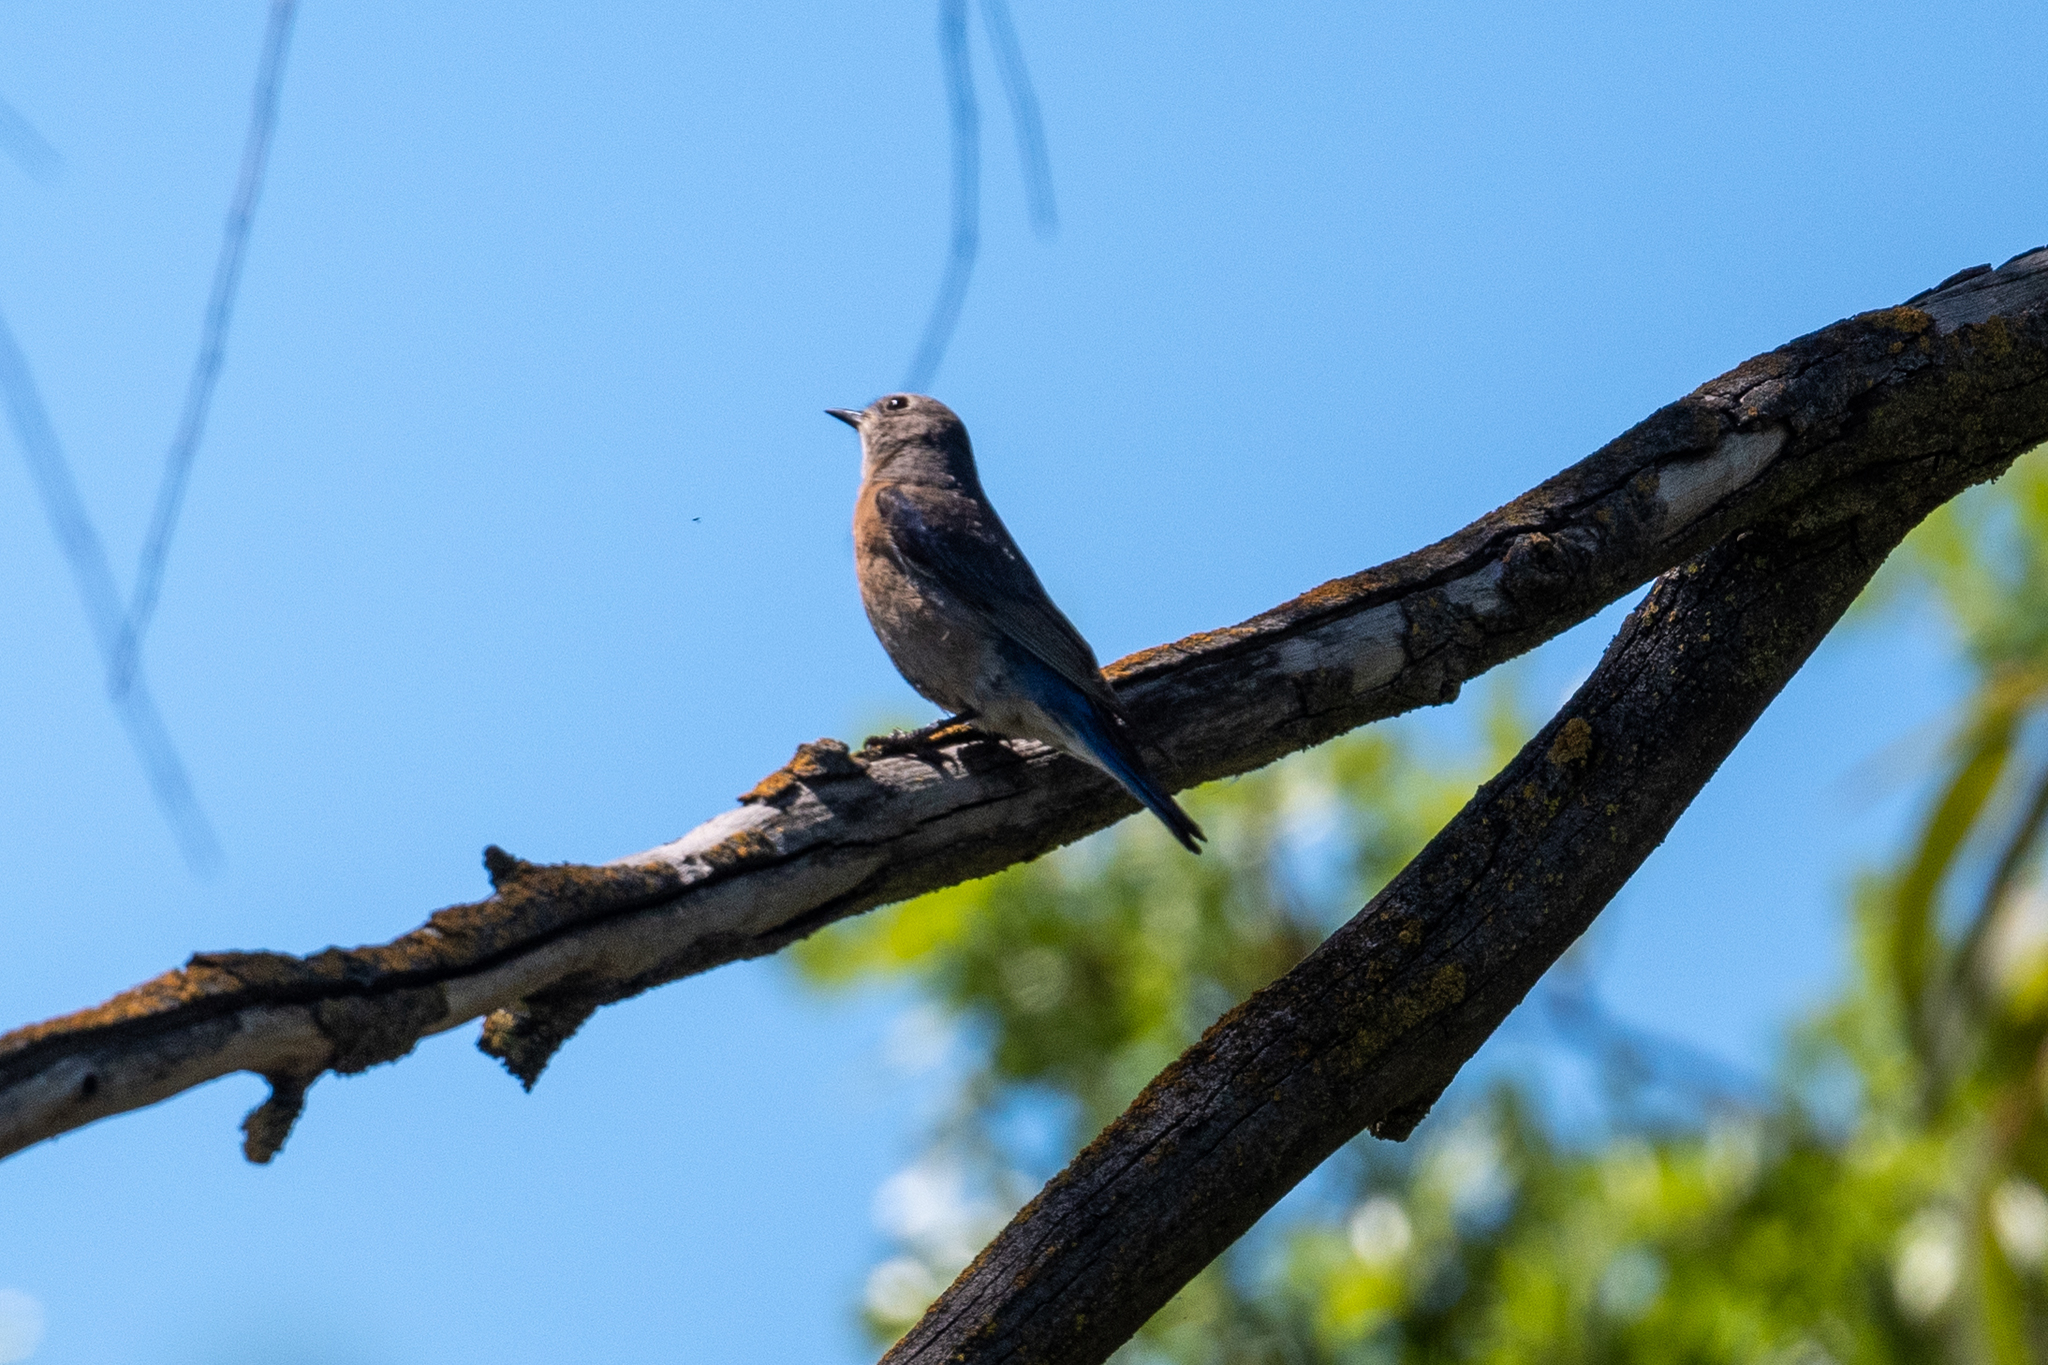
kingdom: Animalia
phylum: Chordata
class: Aves
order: Passeriformes
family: Turdidae
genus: Sialia
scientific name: Sialia mexicana
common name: Western bluebird
